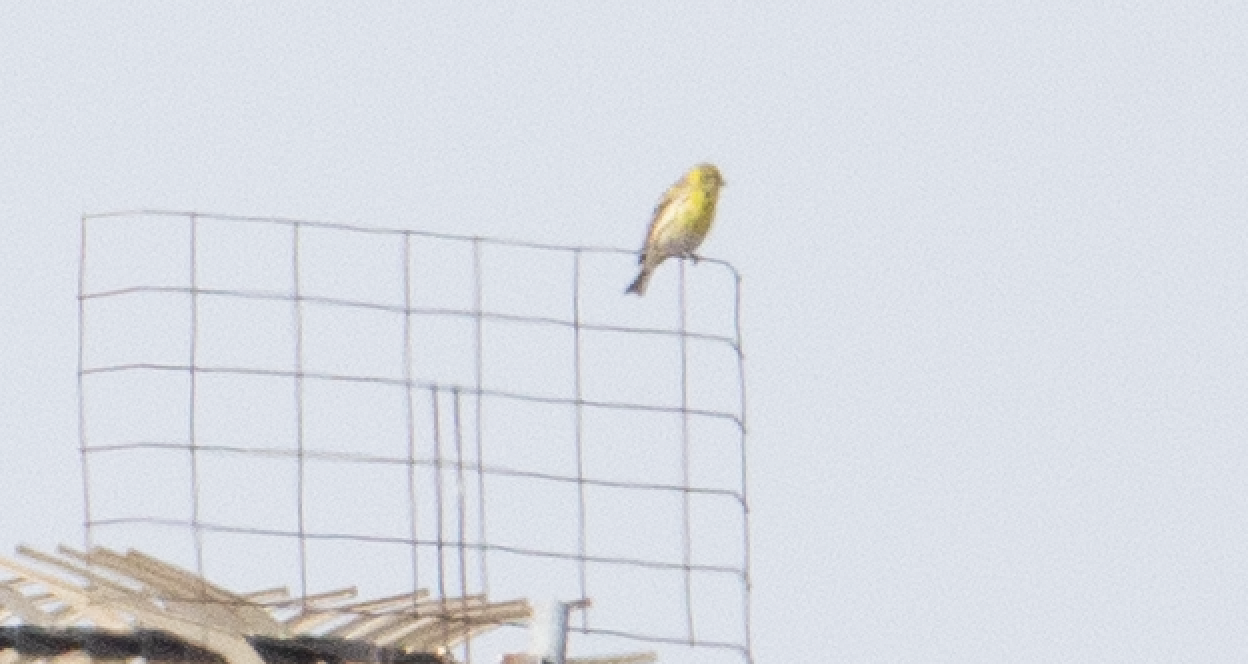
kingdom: Animalia
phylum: Chordata
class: Aves
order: Passeriformes
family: Fringillidae
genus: Serinus
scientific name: Serinus serinus
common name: European serin
